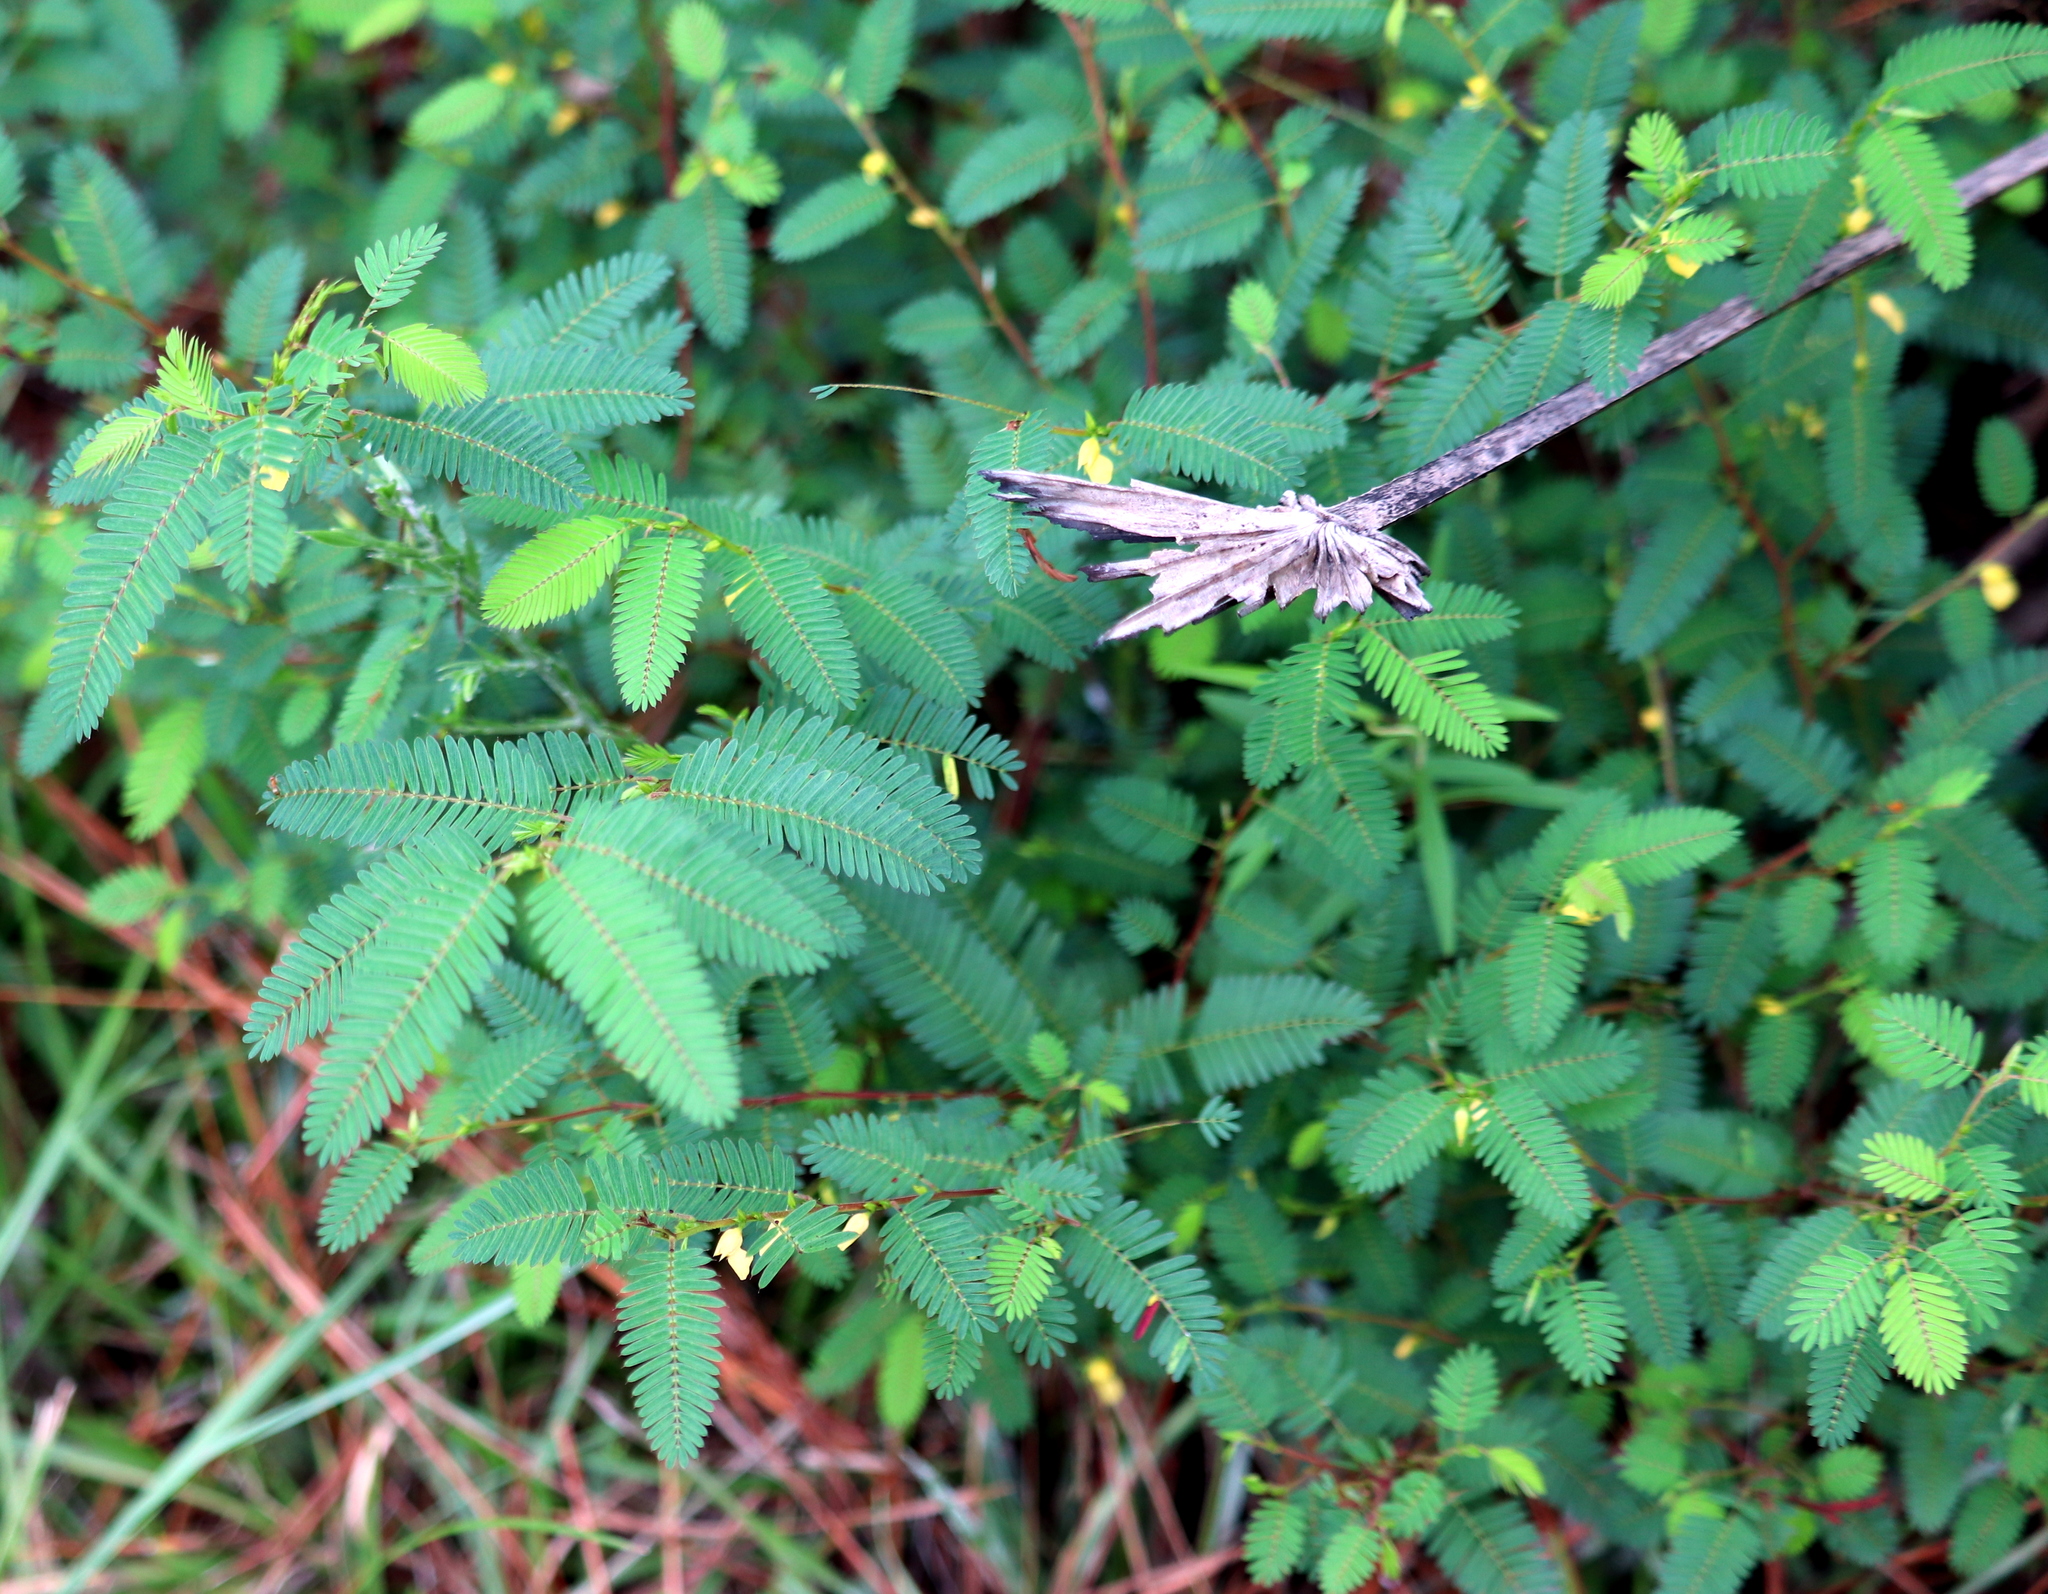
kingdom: Plantae
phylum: Tracheophyta
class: Magnoliopsida
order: Fabales
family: Fabaceae
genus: Chamaecrista
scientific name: Chamaecrista nictitans
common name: Sensitive cassia
